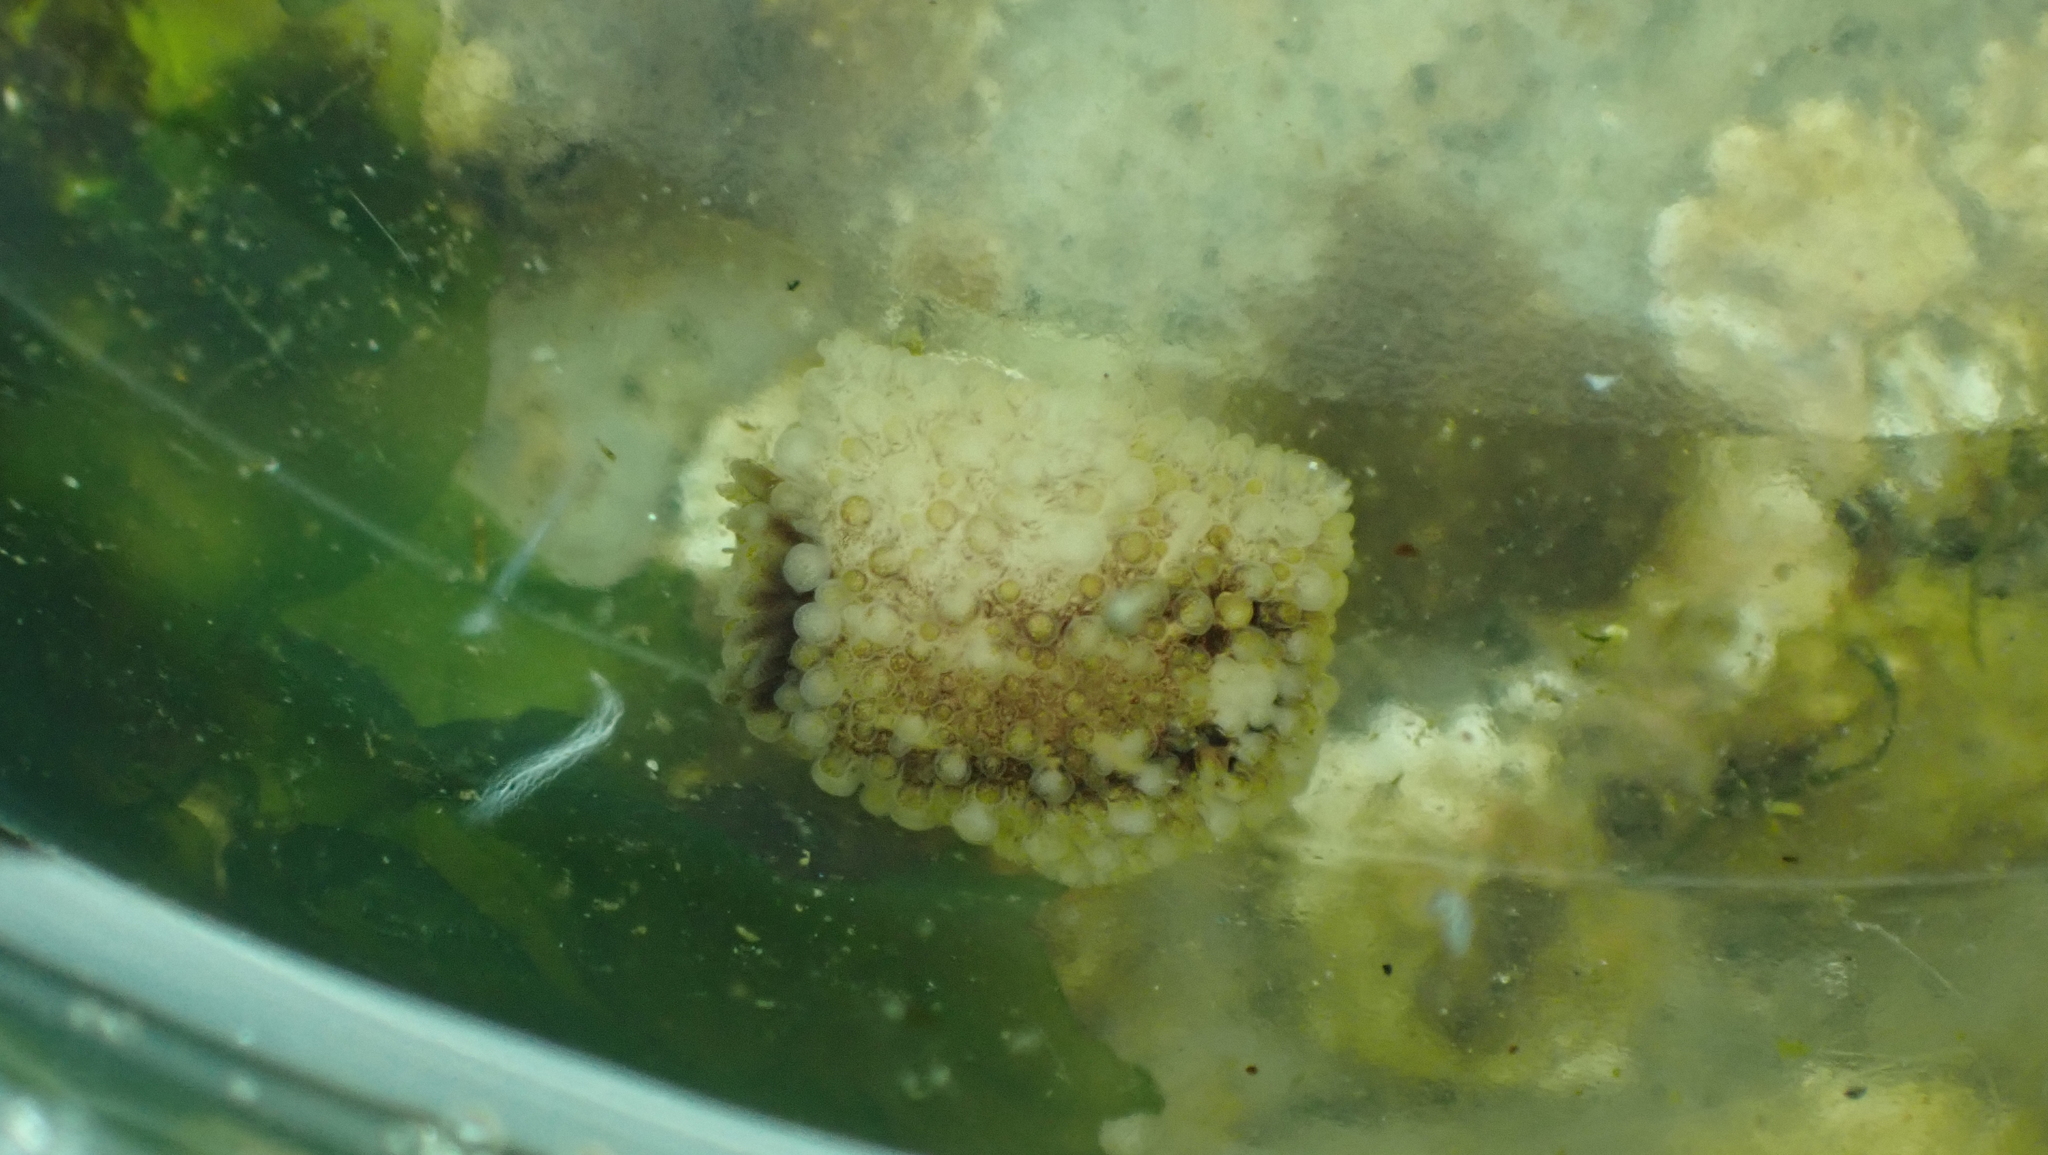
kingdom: Animalia
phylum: Mollusca
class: Gastropoda
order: Nudibranchia
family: Onchidorididae
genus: Onchidoris
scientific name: Onchidoris bilamellata
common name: Barnacle-eating onchidoris
